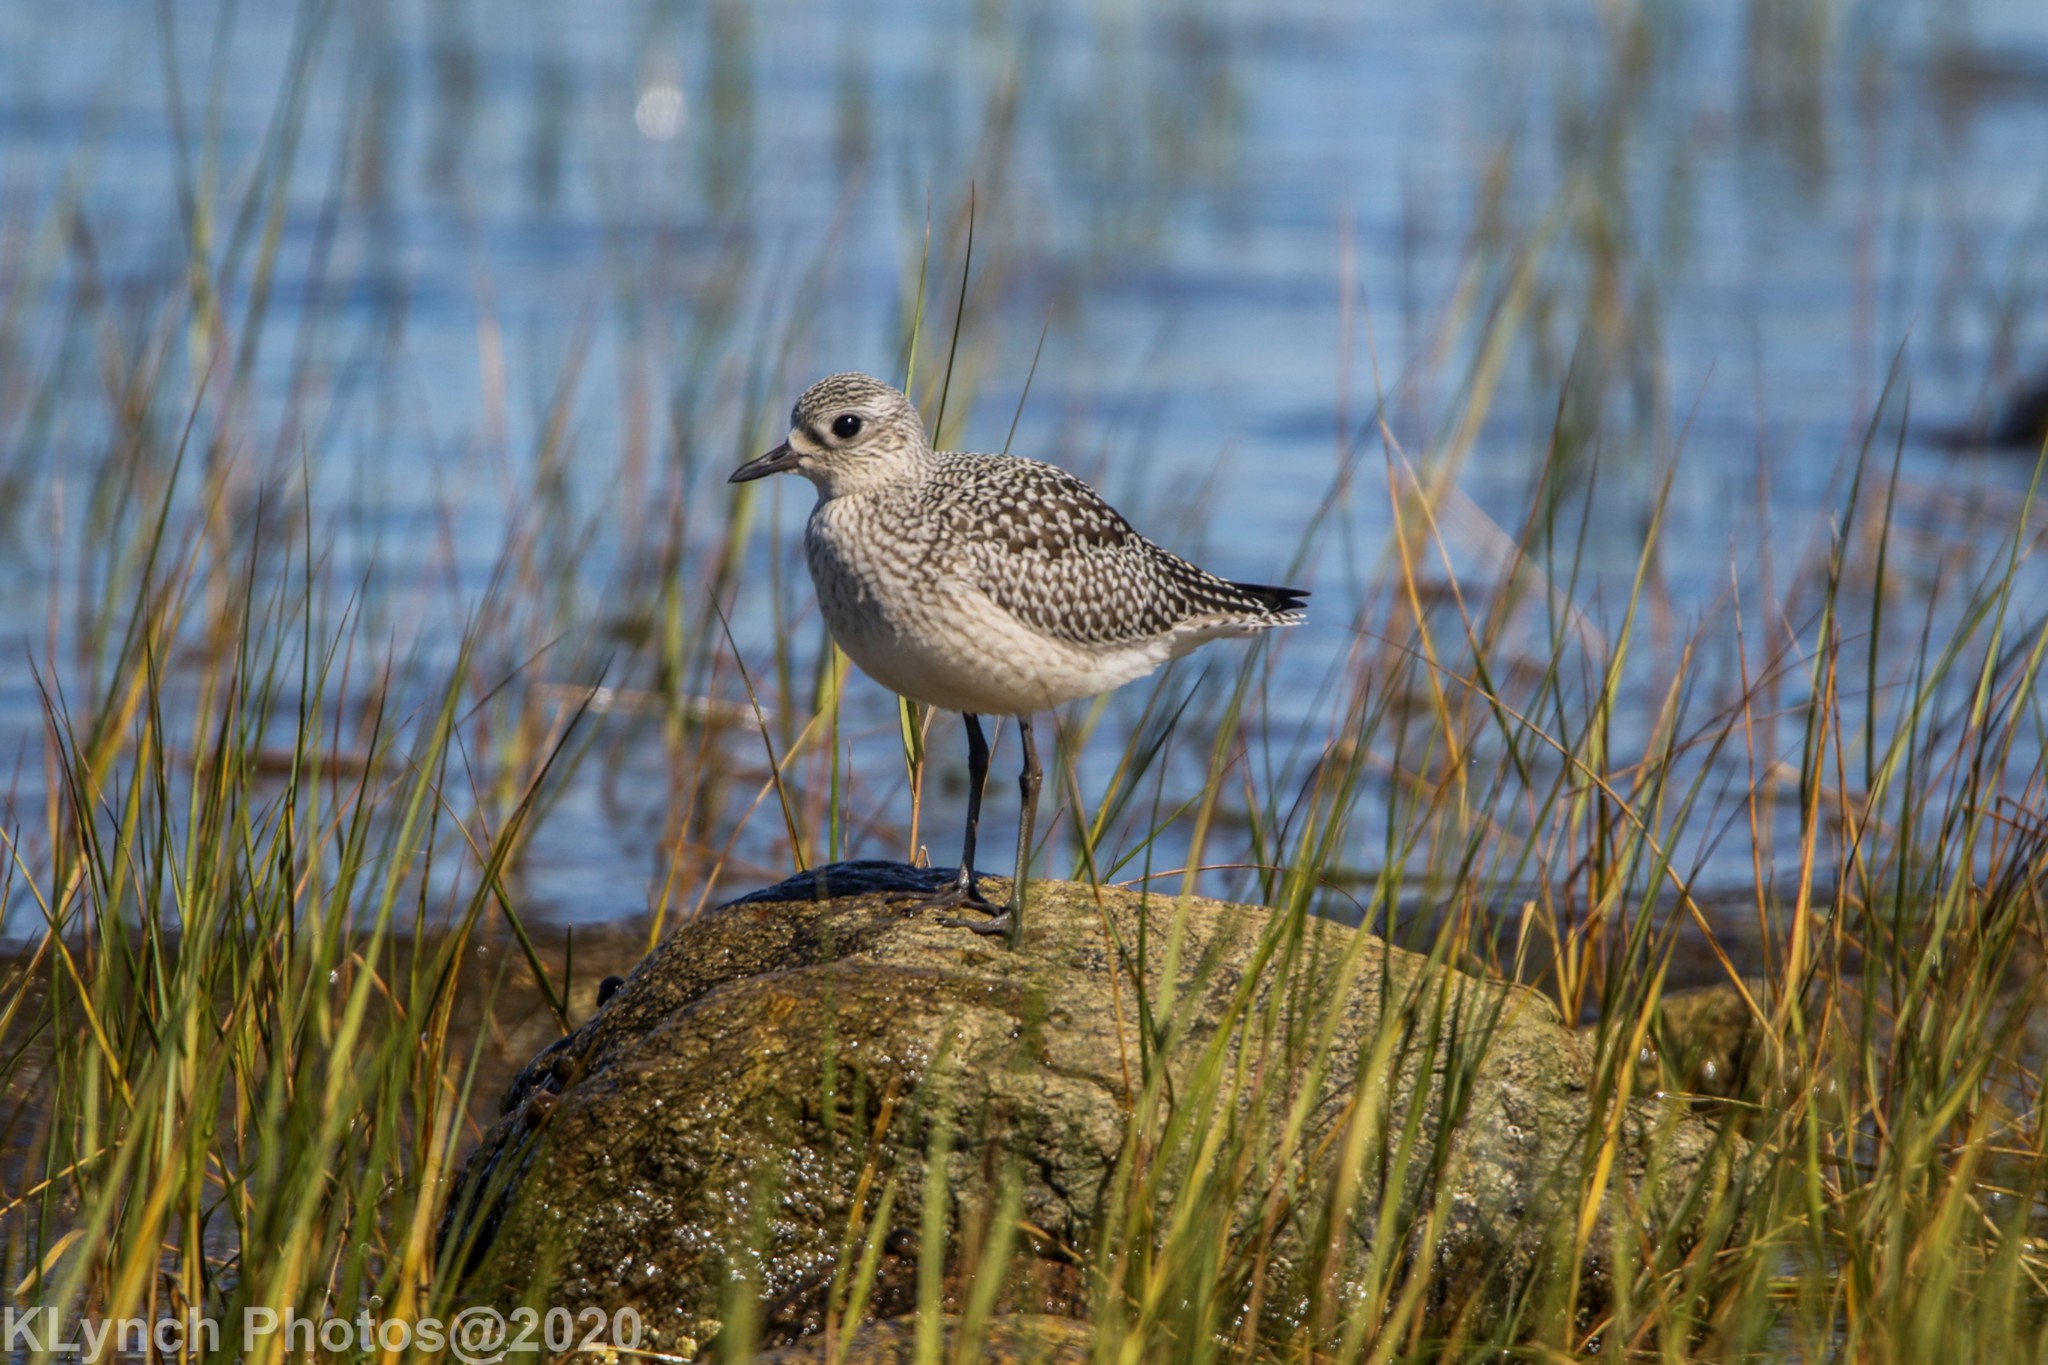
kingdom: Animalia
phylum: Chordata
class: Aves
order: Charadriiformes
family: Charadriidae
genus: Pluvialis
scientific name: Pluvialis squatarola
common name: Grey plover
